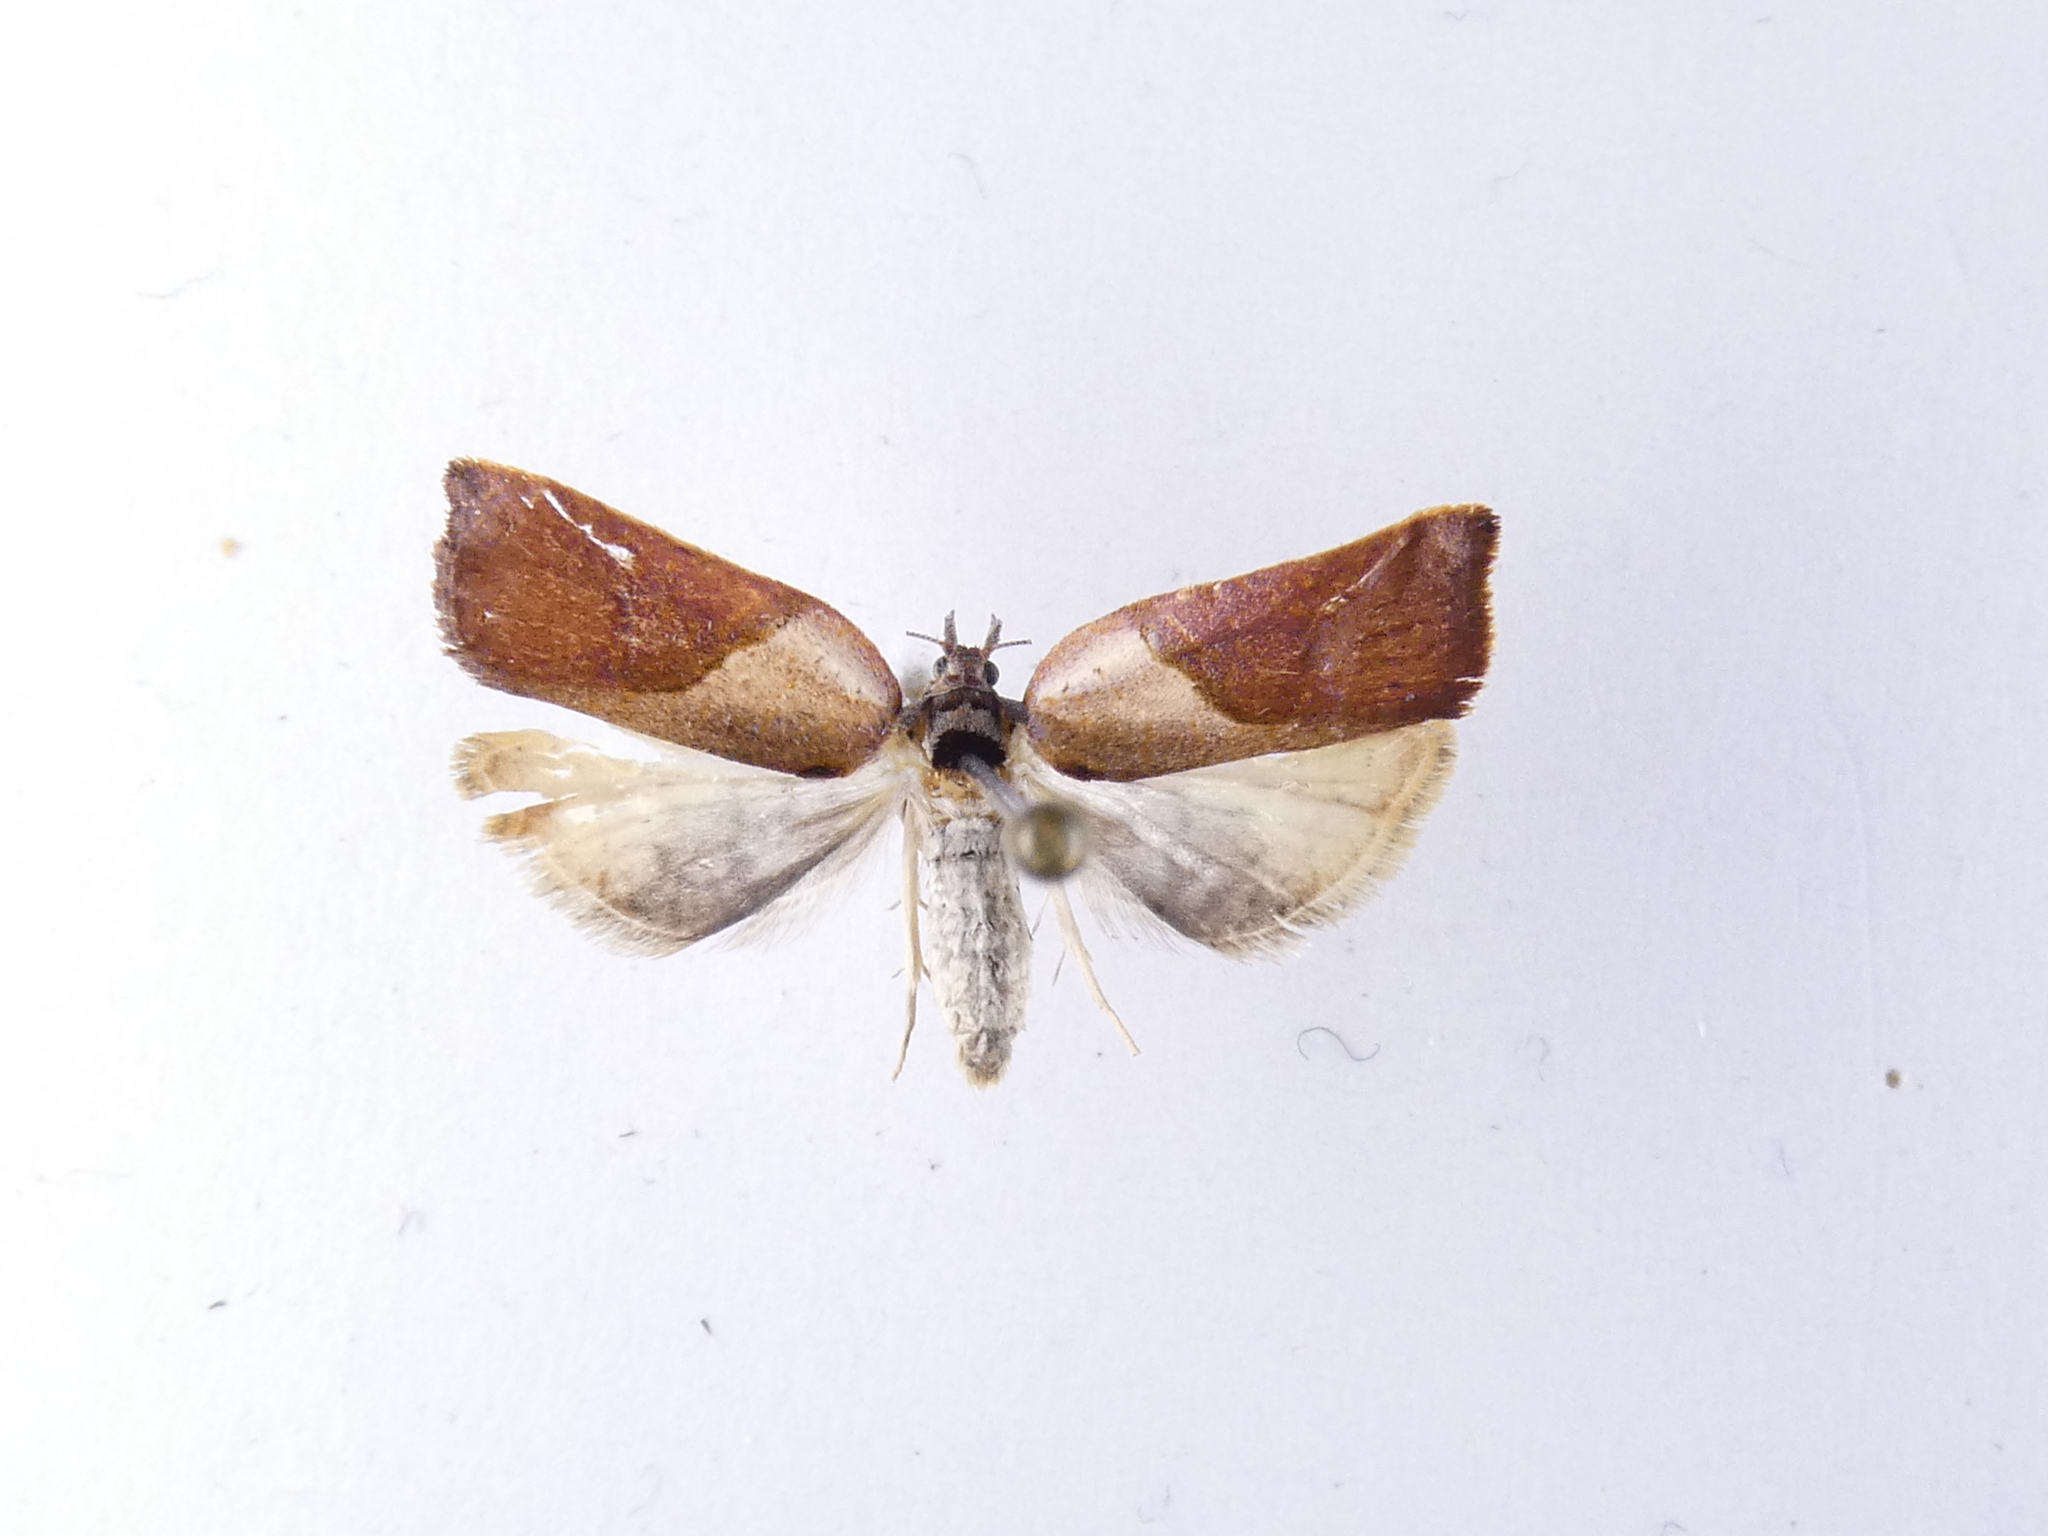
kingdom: Animalia
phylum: Arthropoda
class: Insecta
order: Lepidoptera
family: Tortricidae
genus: Pyrgotis
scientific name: Pyrgotis plagiatana
